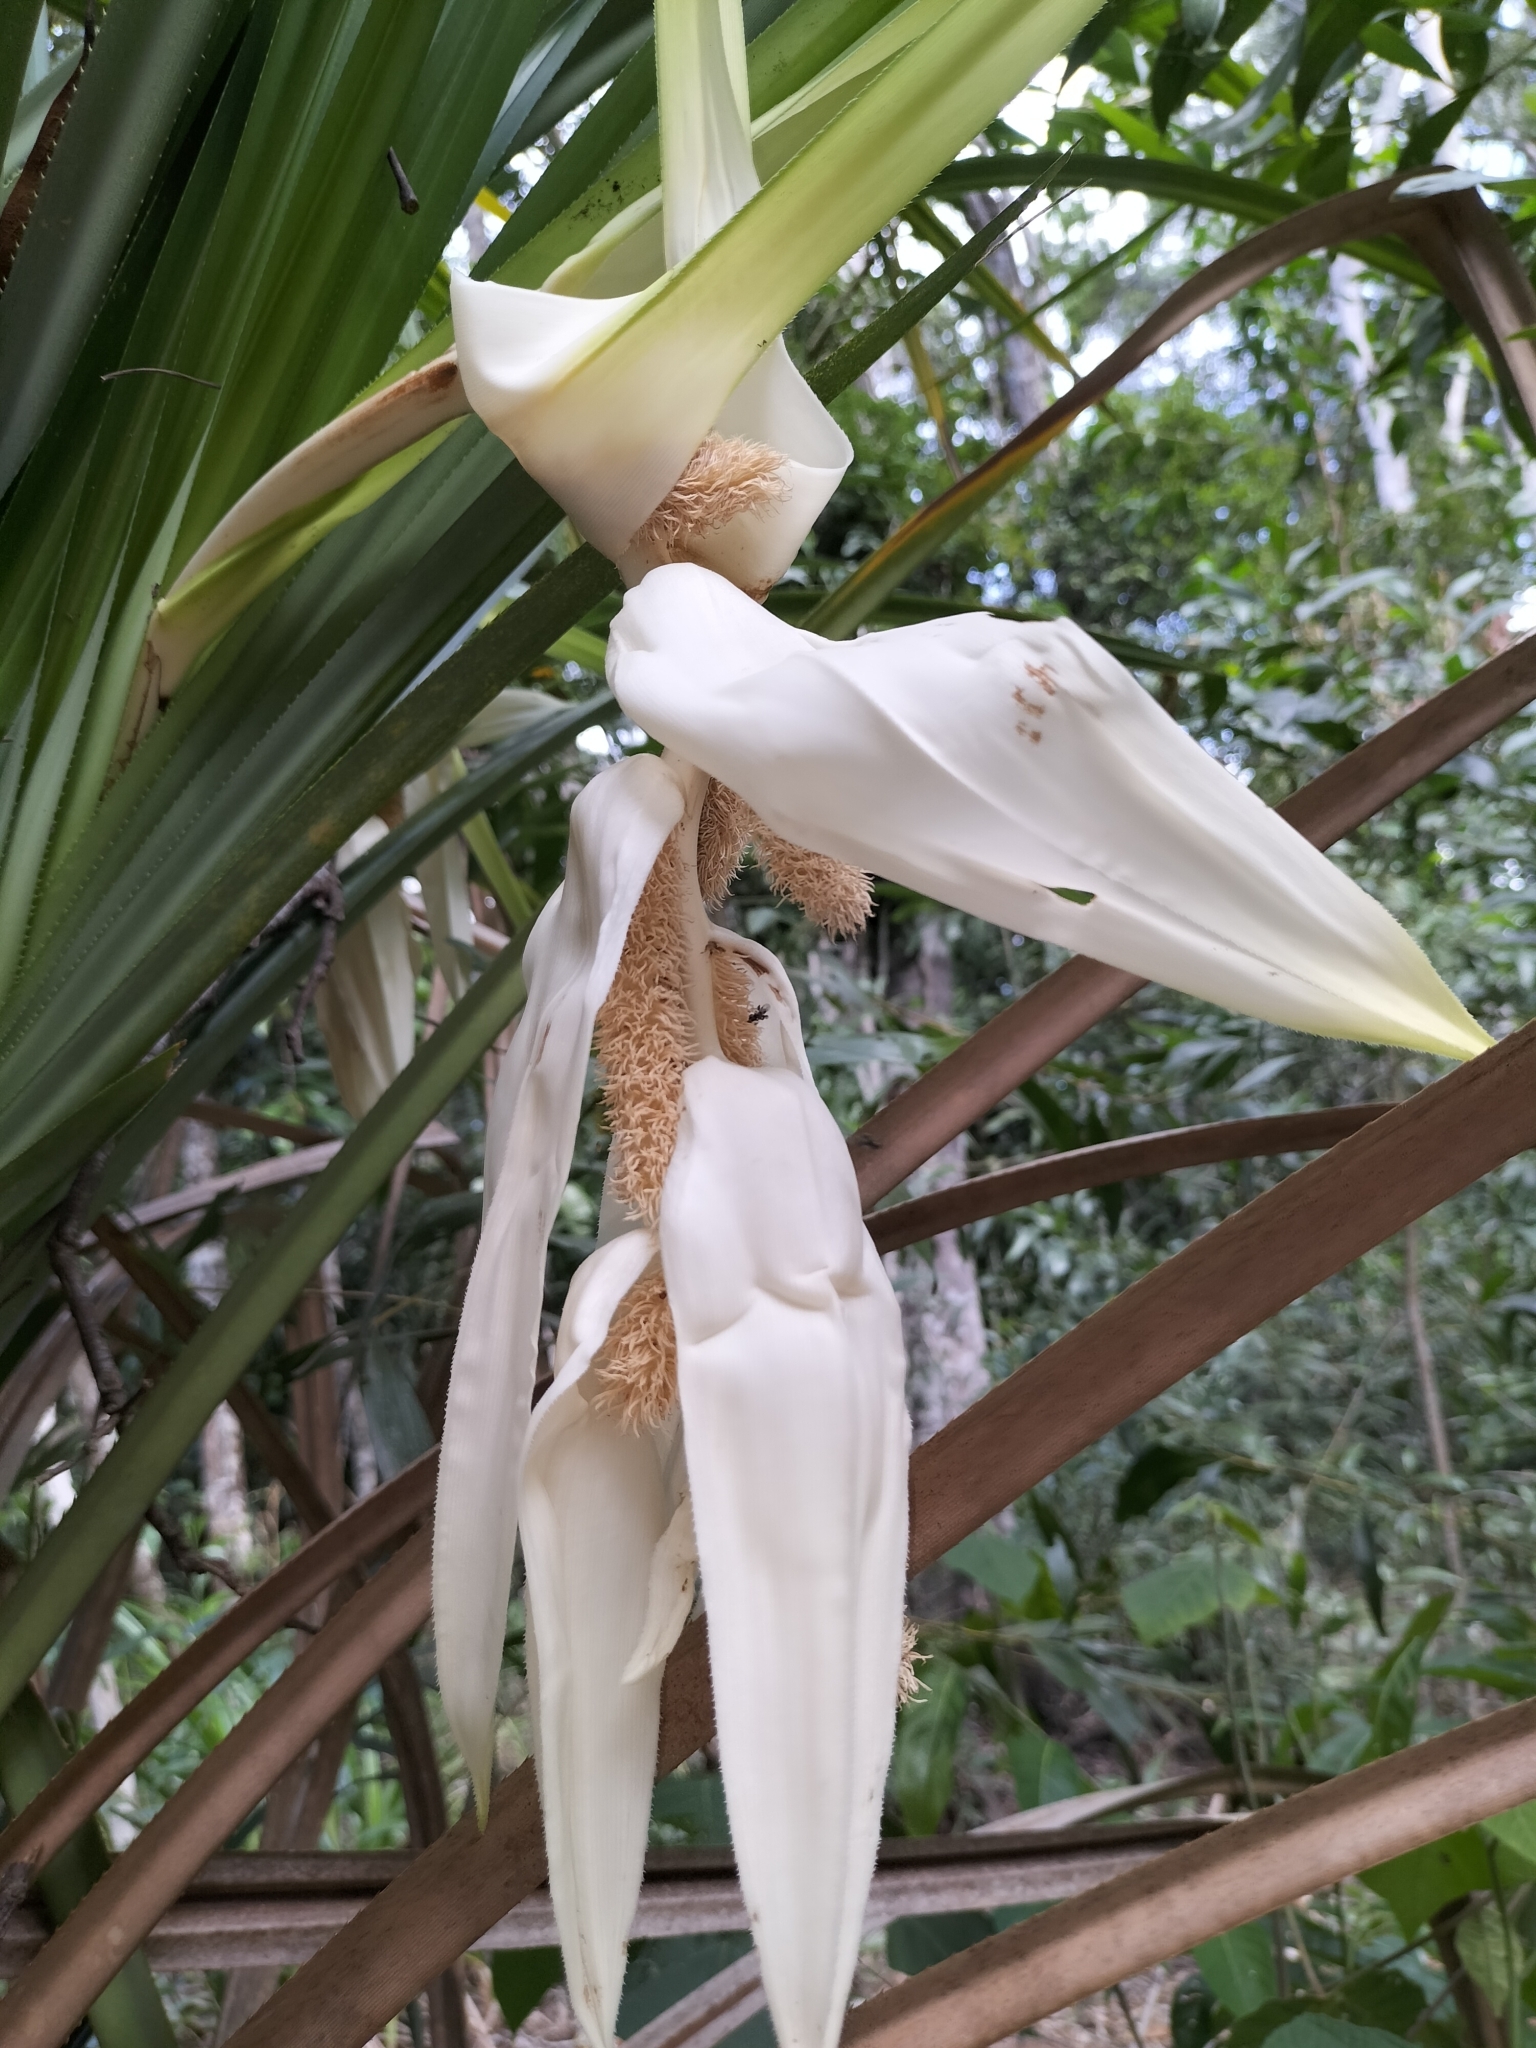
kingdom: Plantae
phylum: Tracheophyta
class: Liliopsida
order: Pandanales
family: Pandanaceae
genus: Benstonea
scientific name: Benstonea monticola
